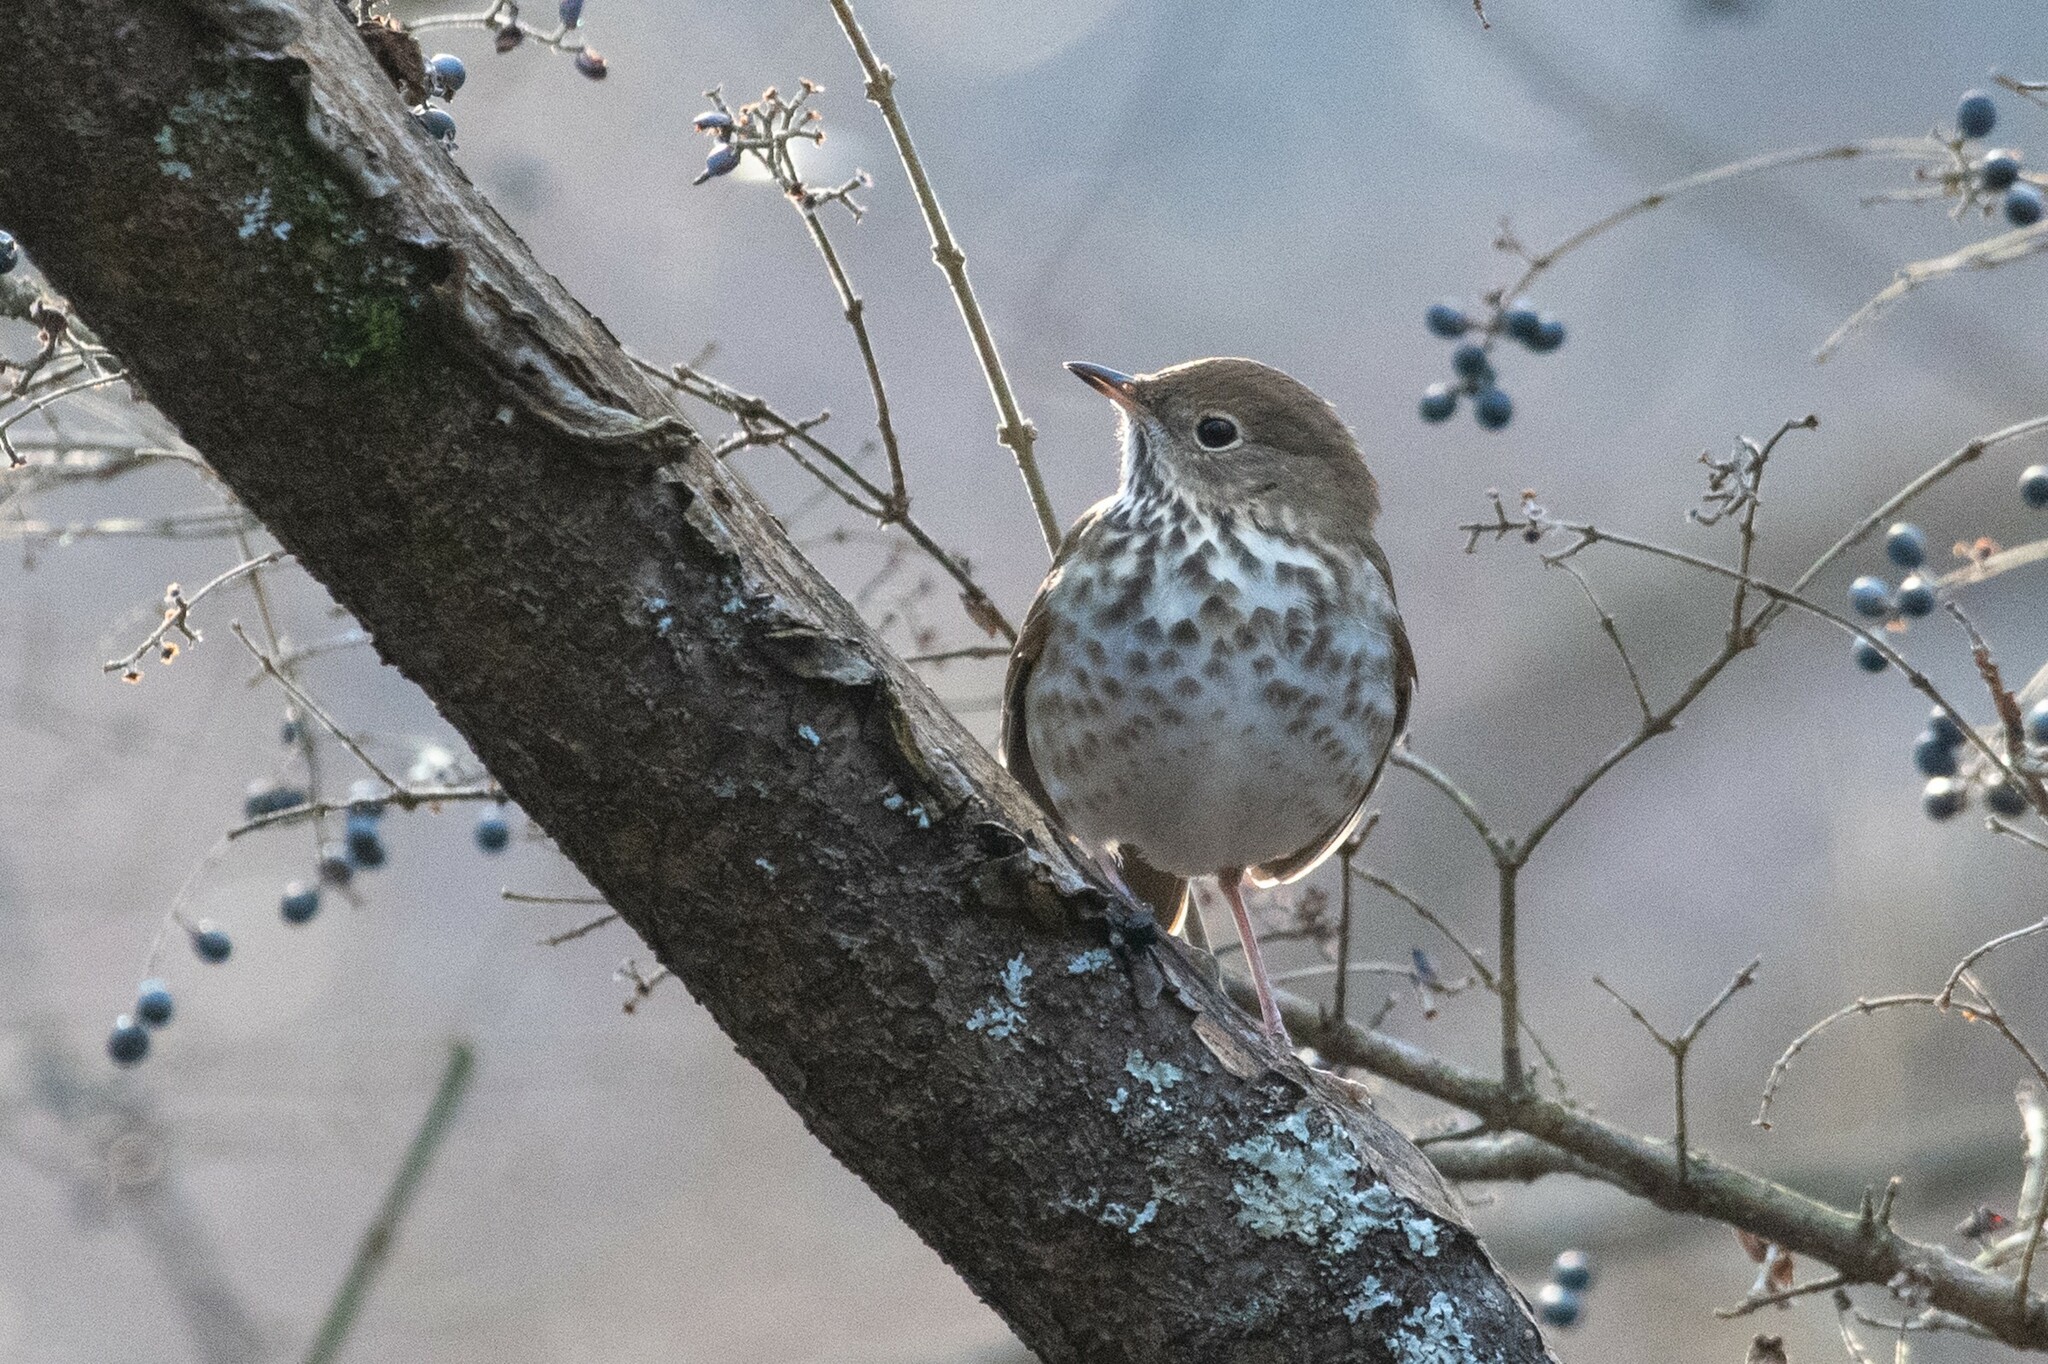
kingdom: Animalia
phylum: Chordata
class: Aves
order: Passeriformes
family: Turdidae
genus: Catharus
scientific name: Catharus guttatus
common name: Hermit thrush
